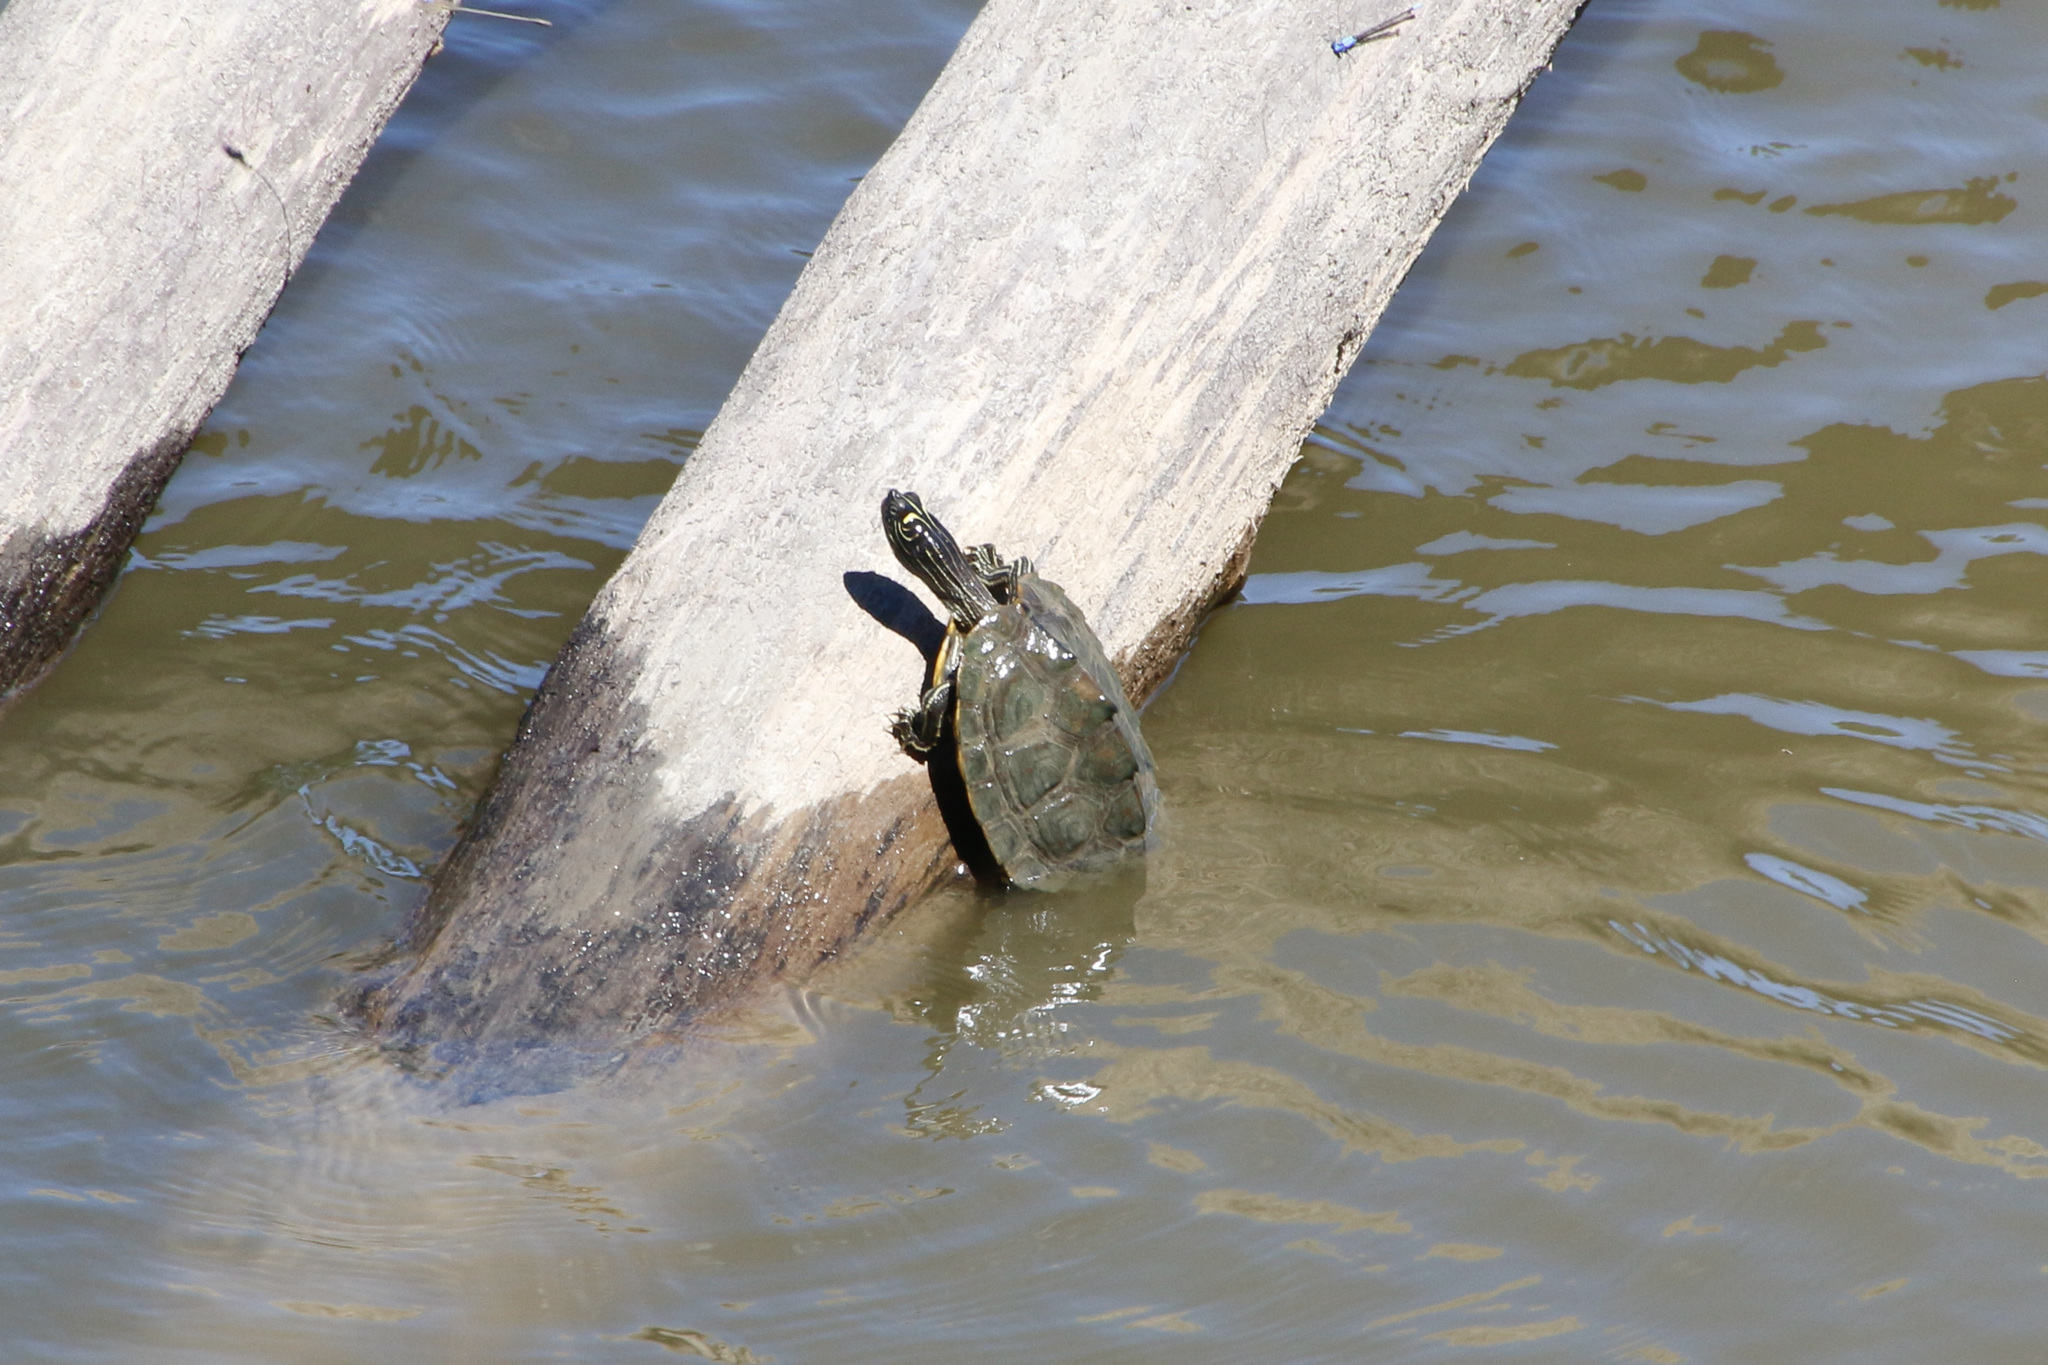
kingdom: Animalia
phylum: Chordata
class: Testudines
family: Emydidae
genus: Graptemys
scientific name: Graptemys pseudogeographica
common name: False map turtle
